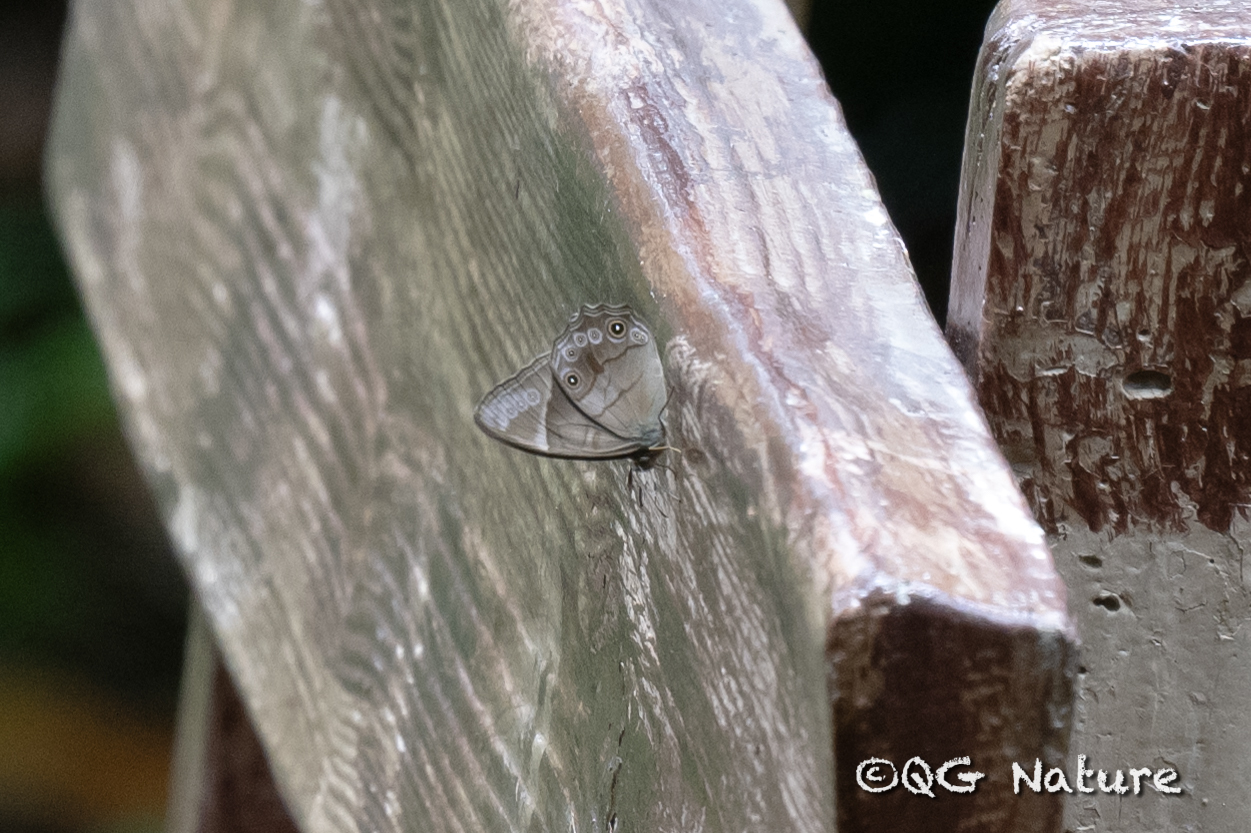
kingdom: Animalia
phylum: Arthropoda
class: Insecta
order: Lepidoptera
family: Nymphalidae
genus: Lethe
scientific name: Lethe baucis
